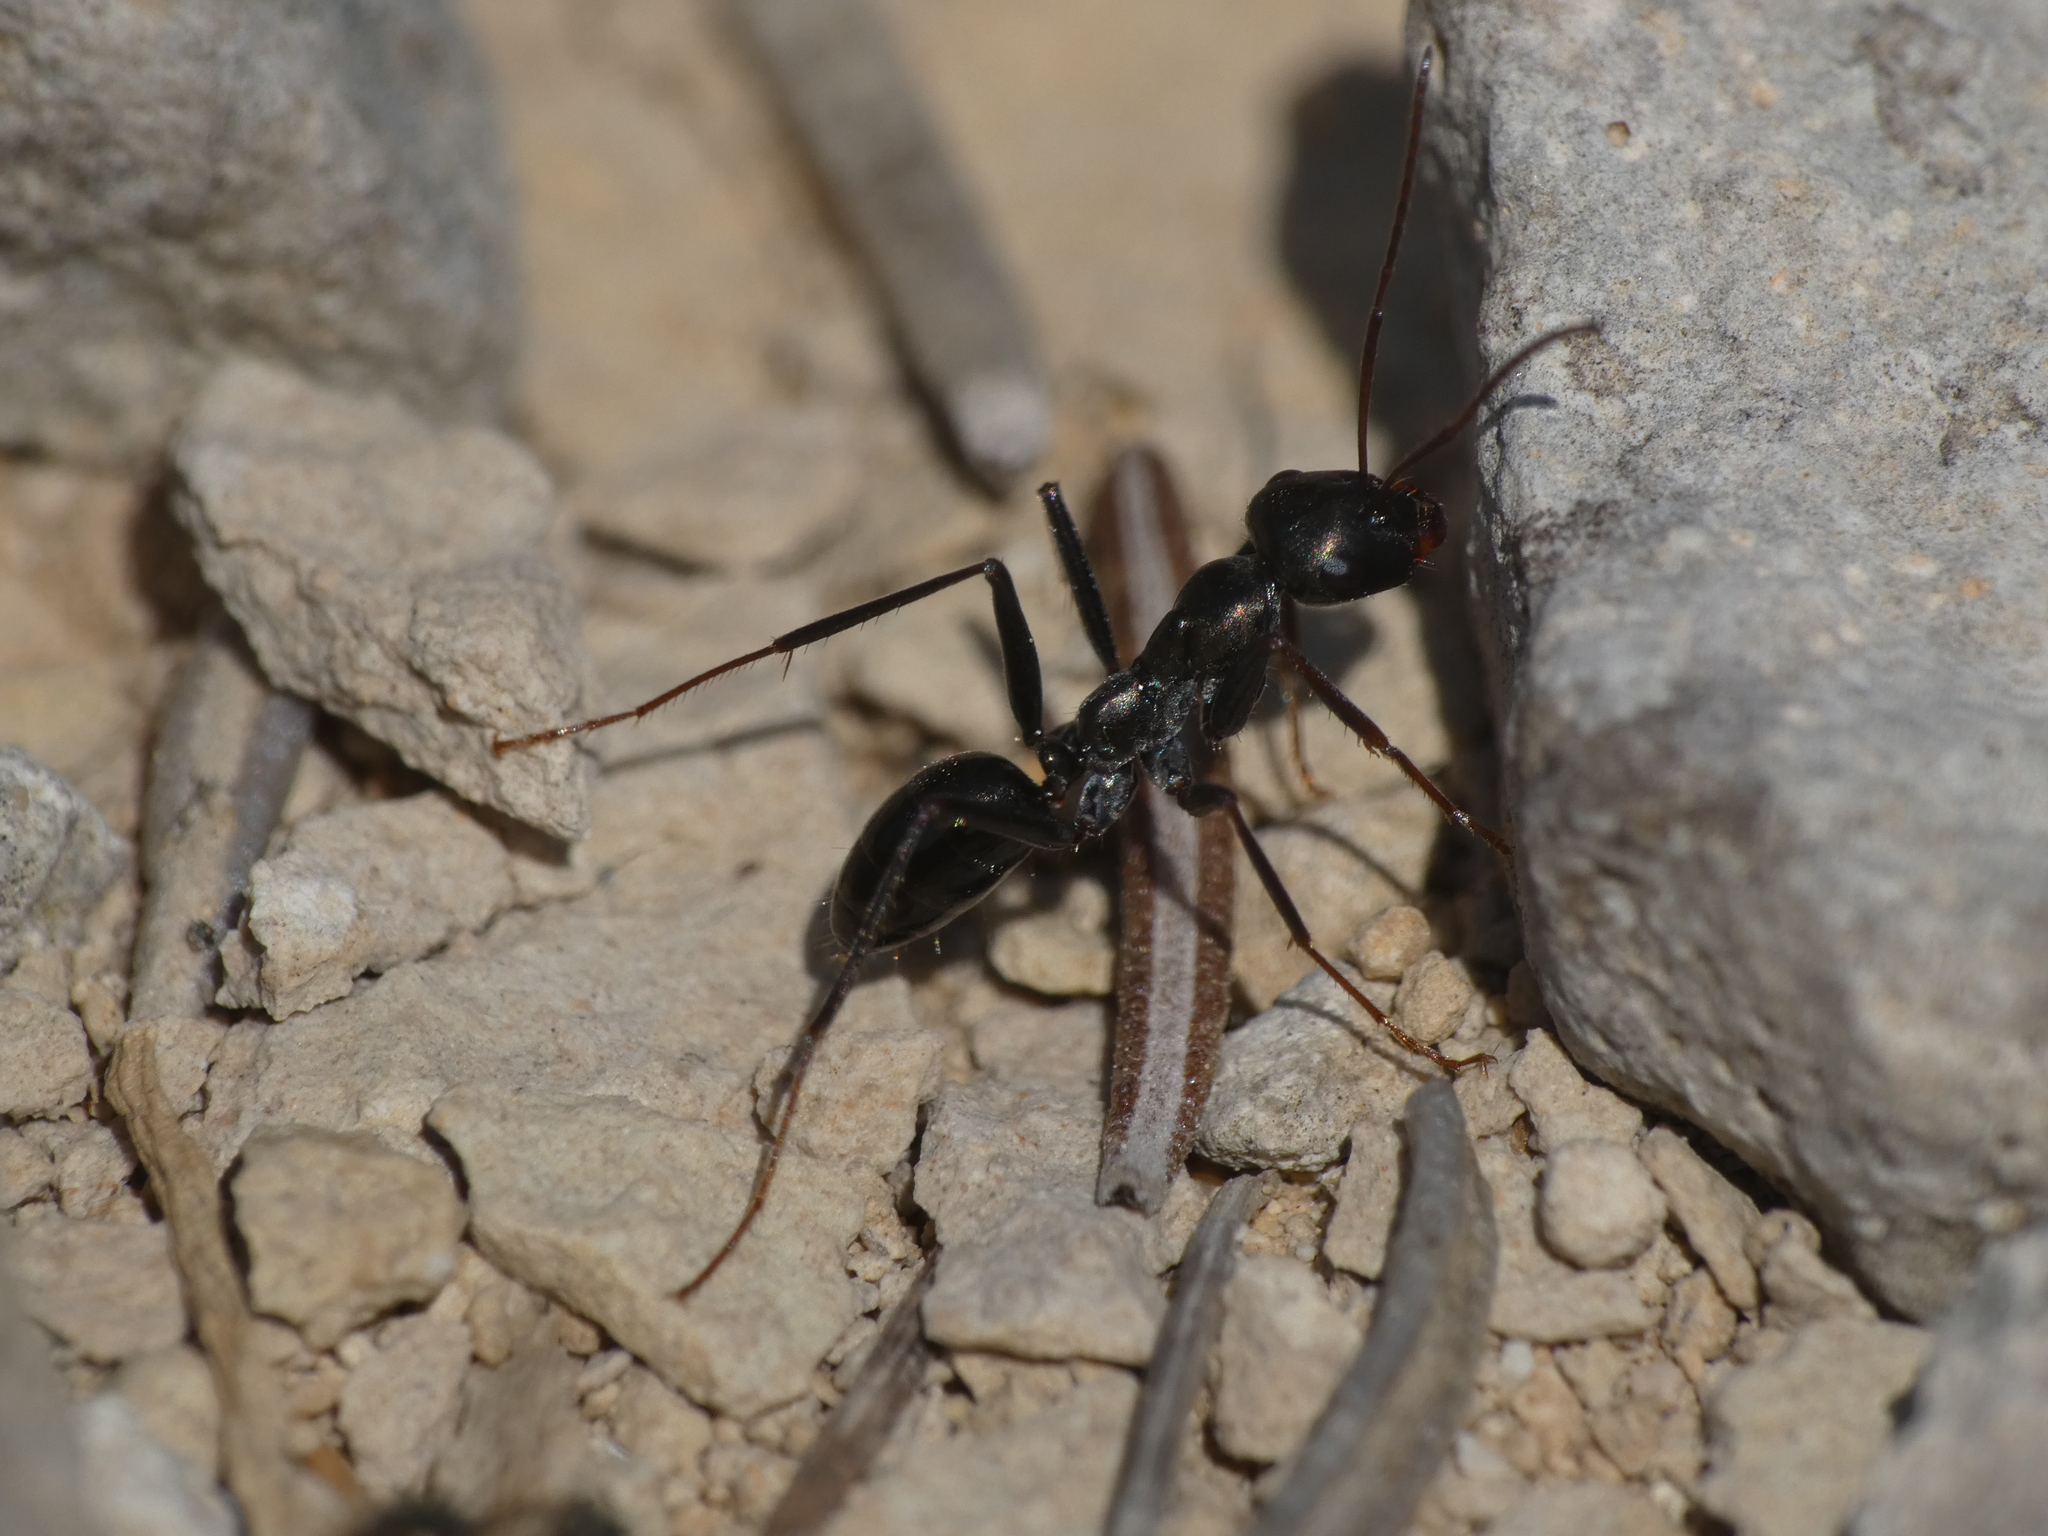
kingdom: Animalia
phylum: Arthropoda
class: Insecta
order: Hymenoptera
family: Formicidae
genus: Cataglyphis
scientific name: Cataglyphis piliscapus
